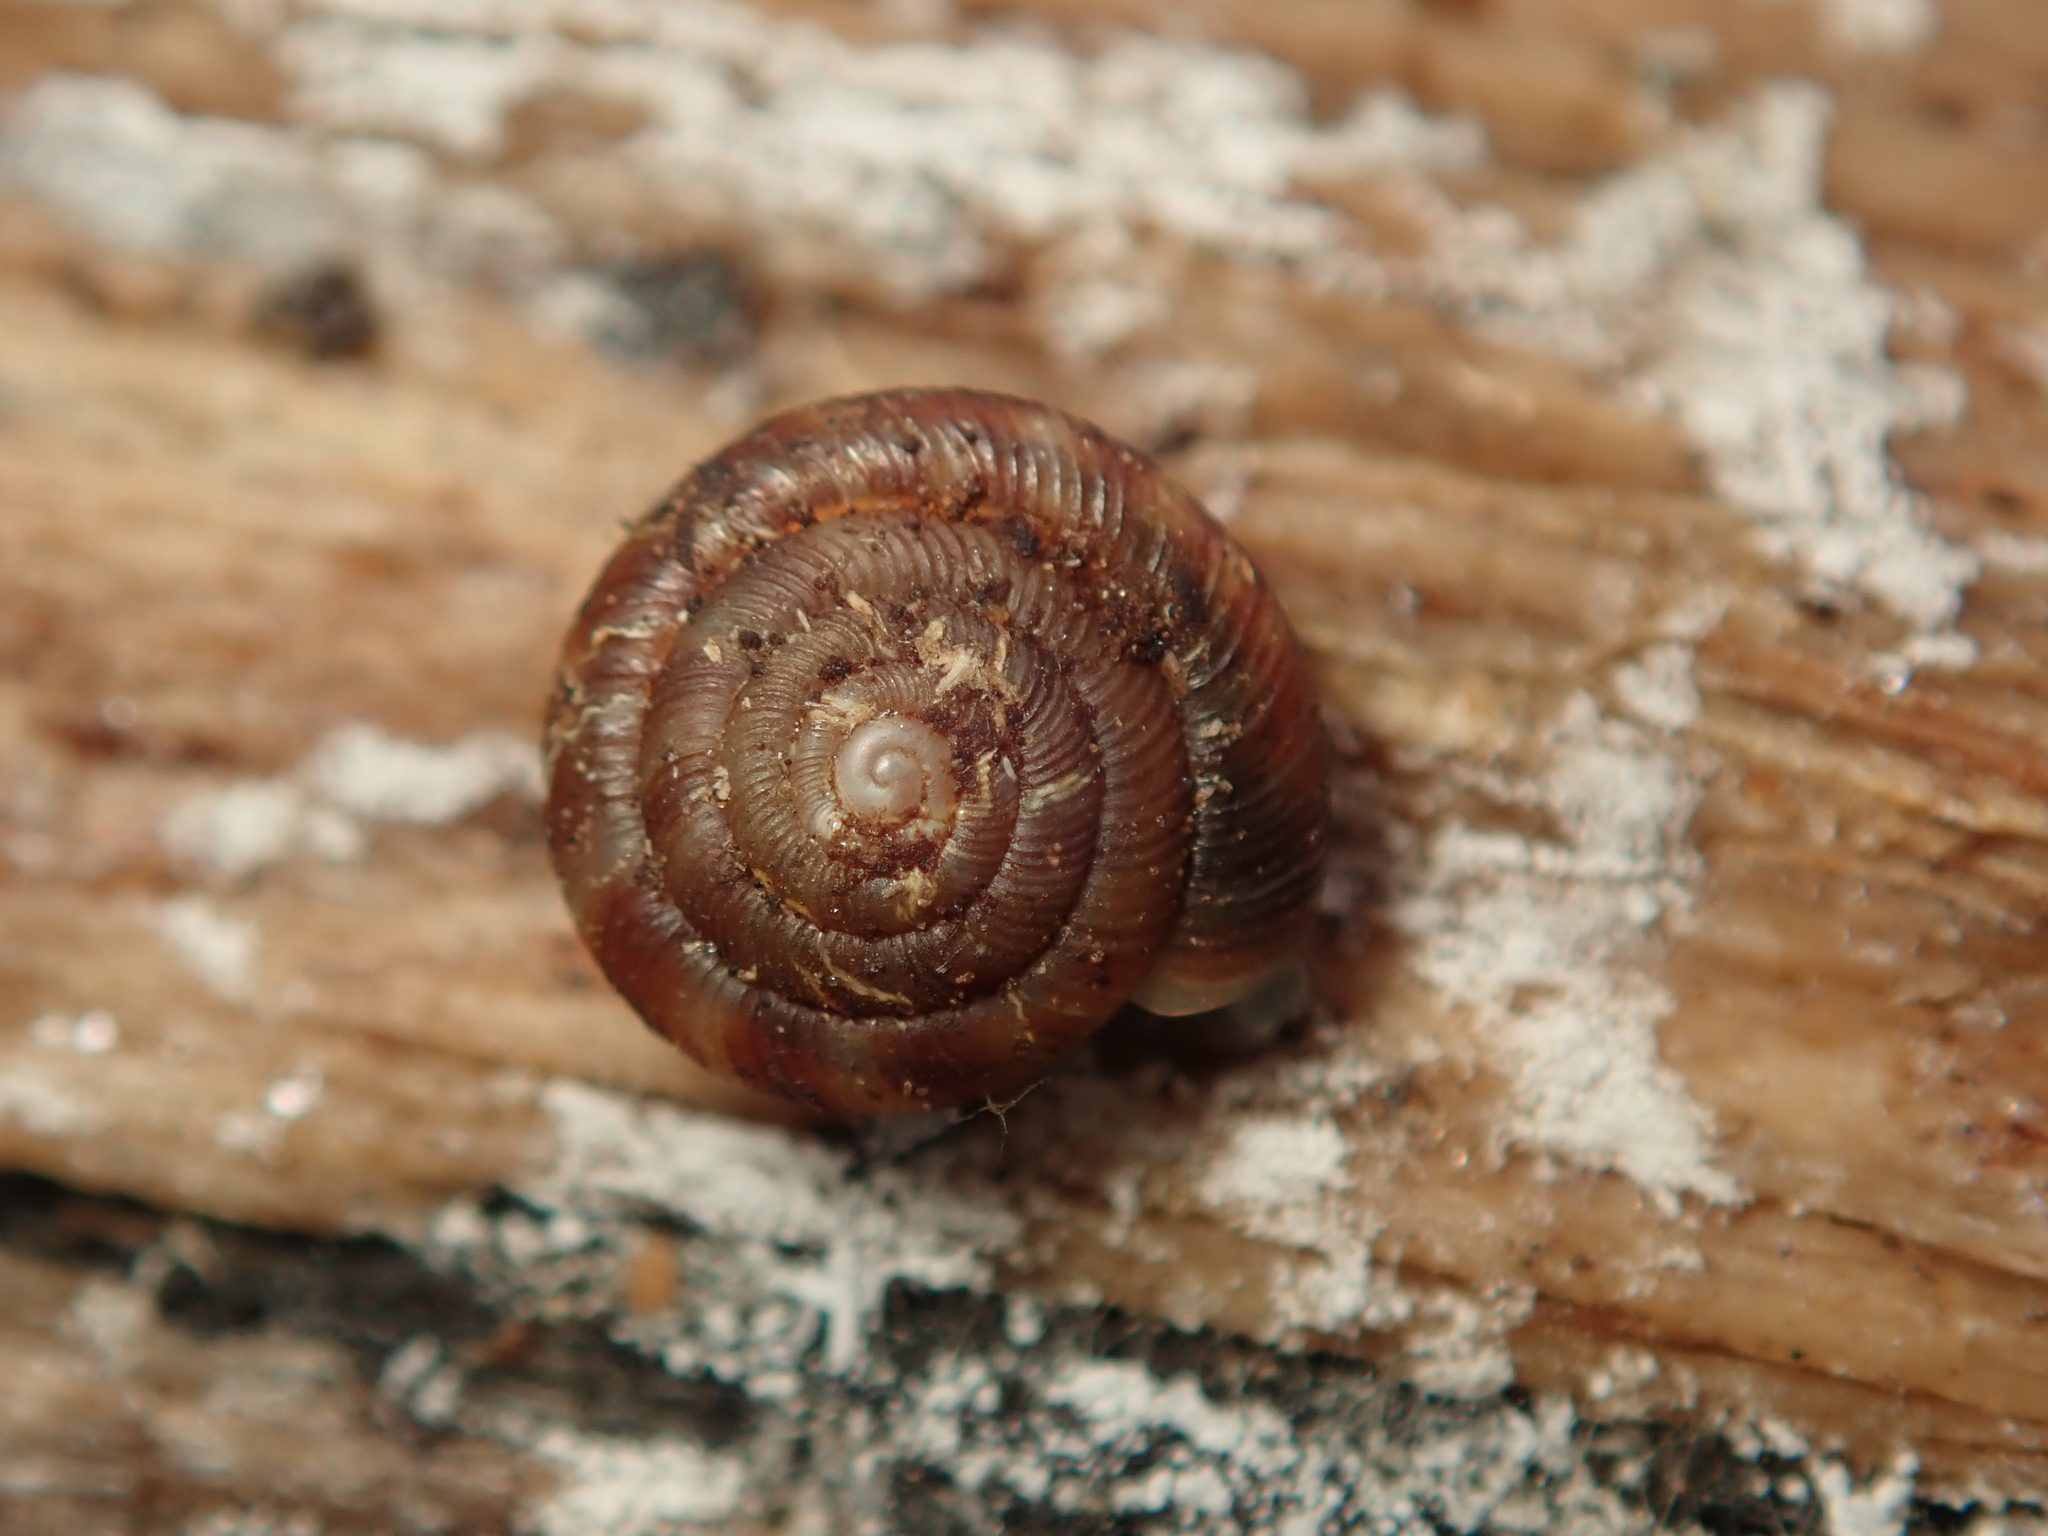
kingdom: Animalia
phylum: Mollusca
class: Gastropoda
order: Stylommatophora
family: Discidae
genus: Discus
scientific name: Discus rotundatus
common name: Rounded snail
